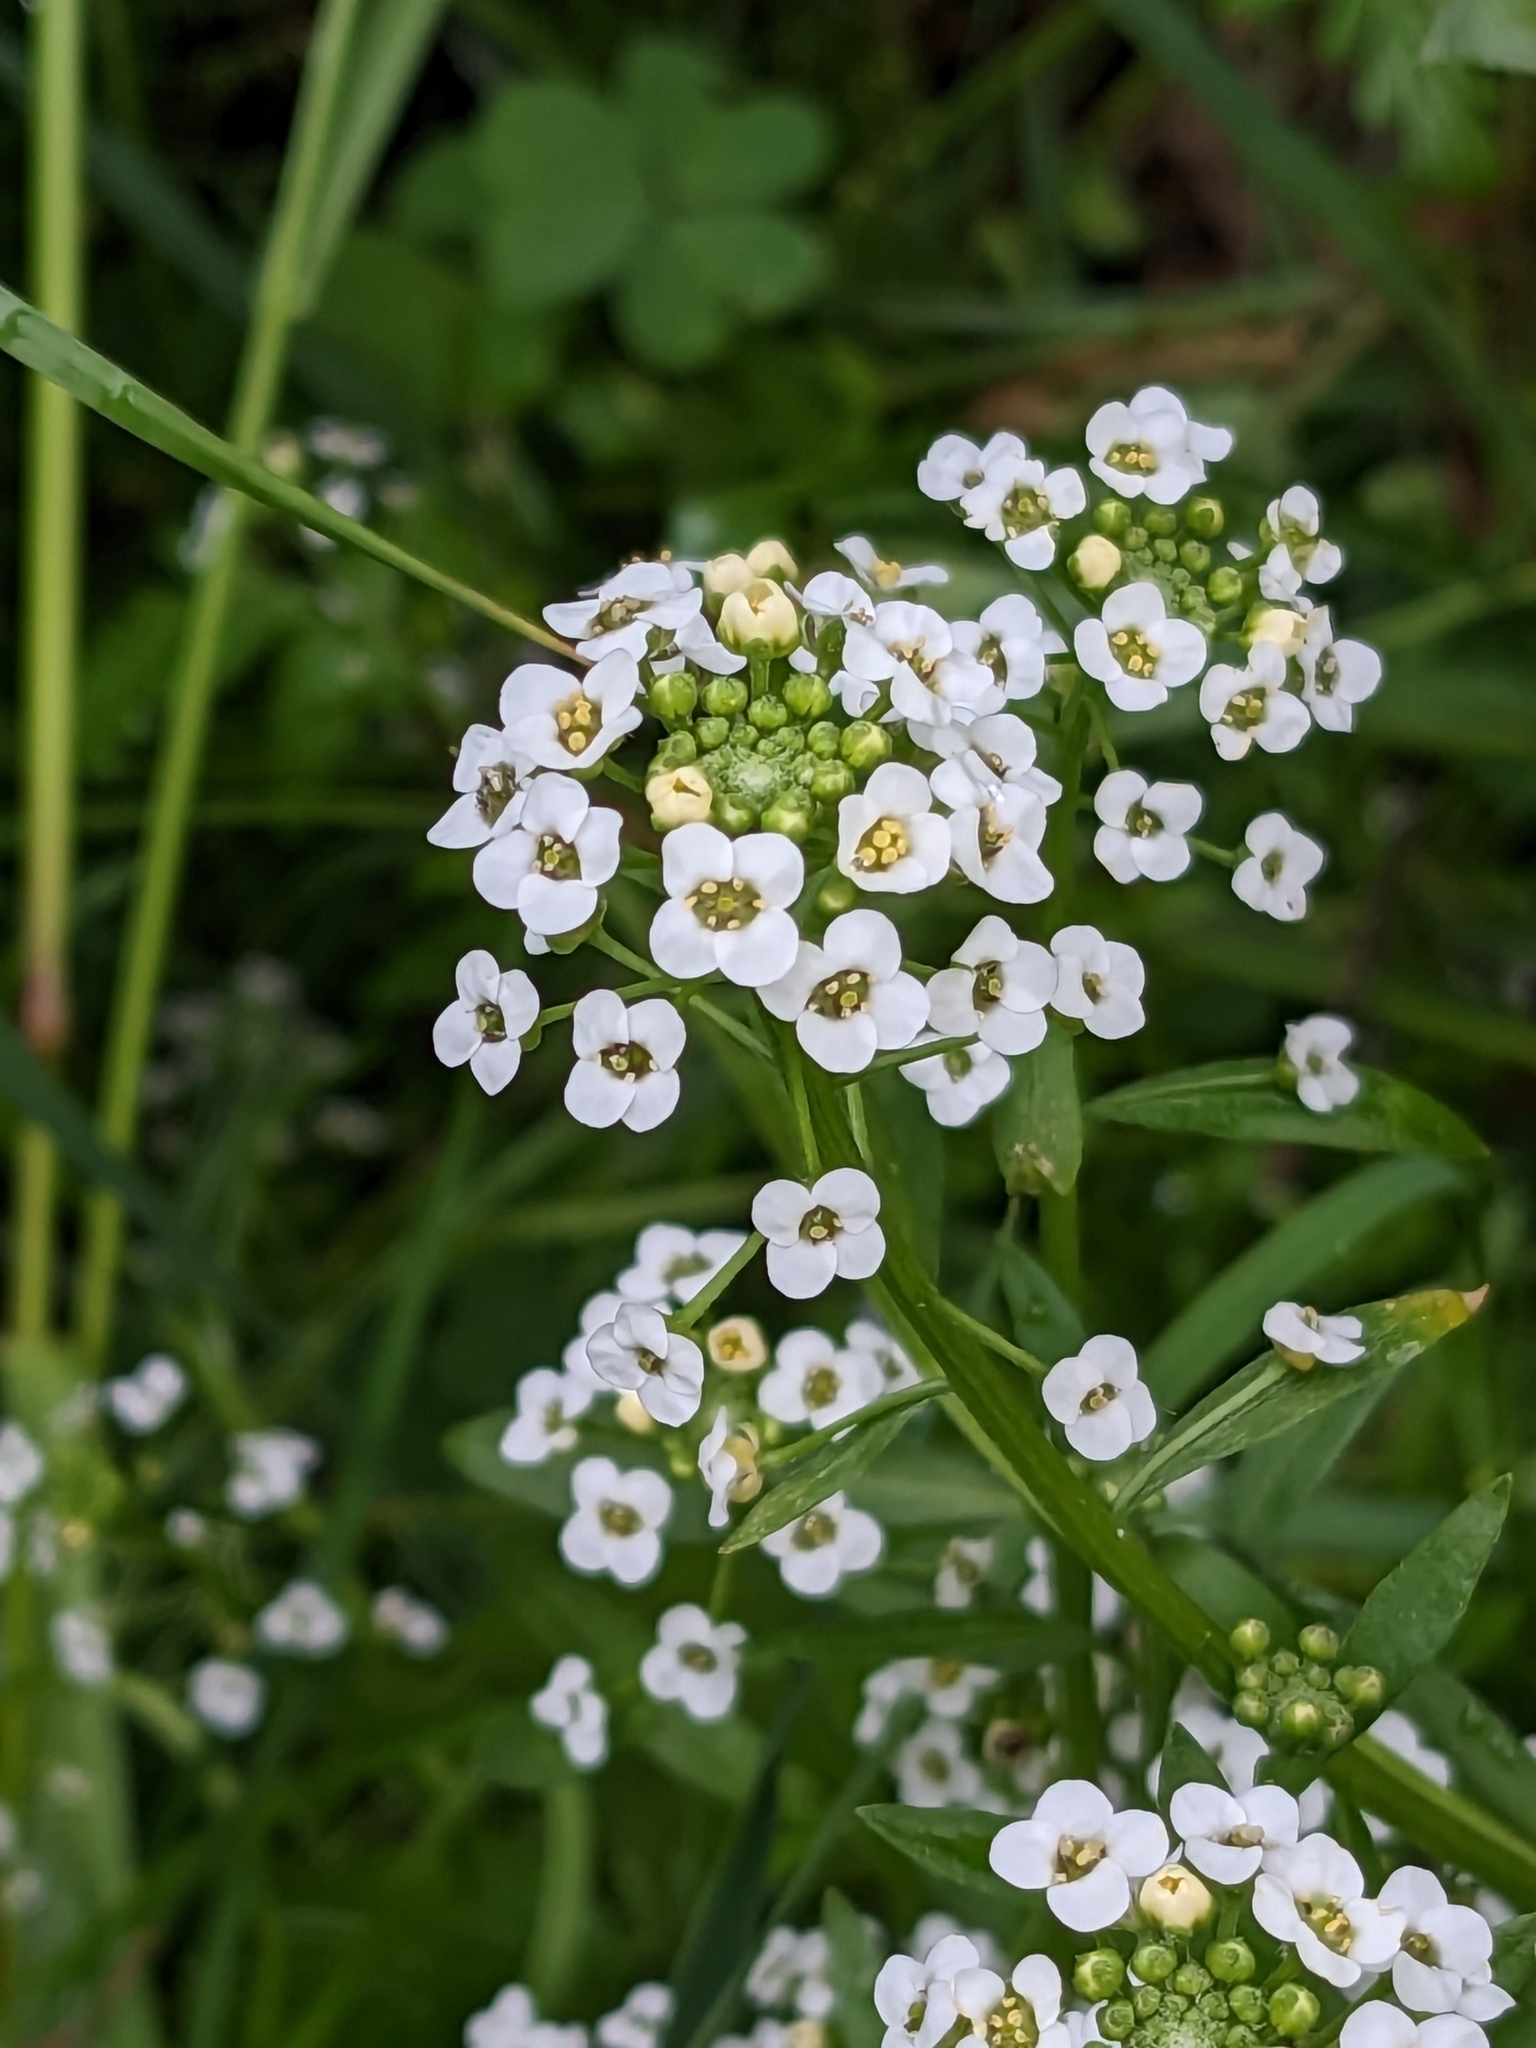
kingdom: Plantae
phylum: Tracheophyta
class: Magnoliopsida
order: Brassicales
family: Brassicaceae
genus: Lobularia
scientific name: Lobularia maritima
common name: Sweet alison
